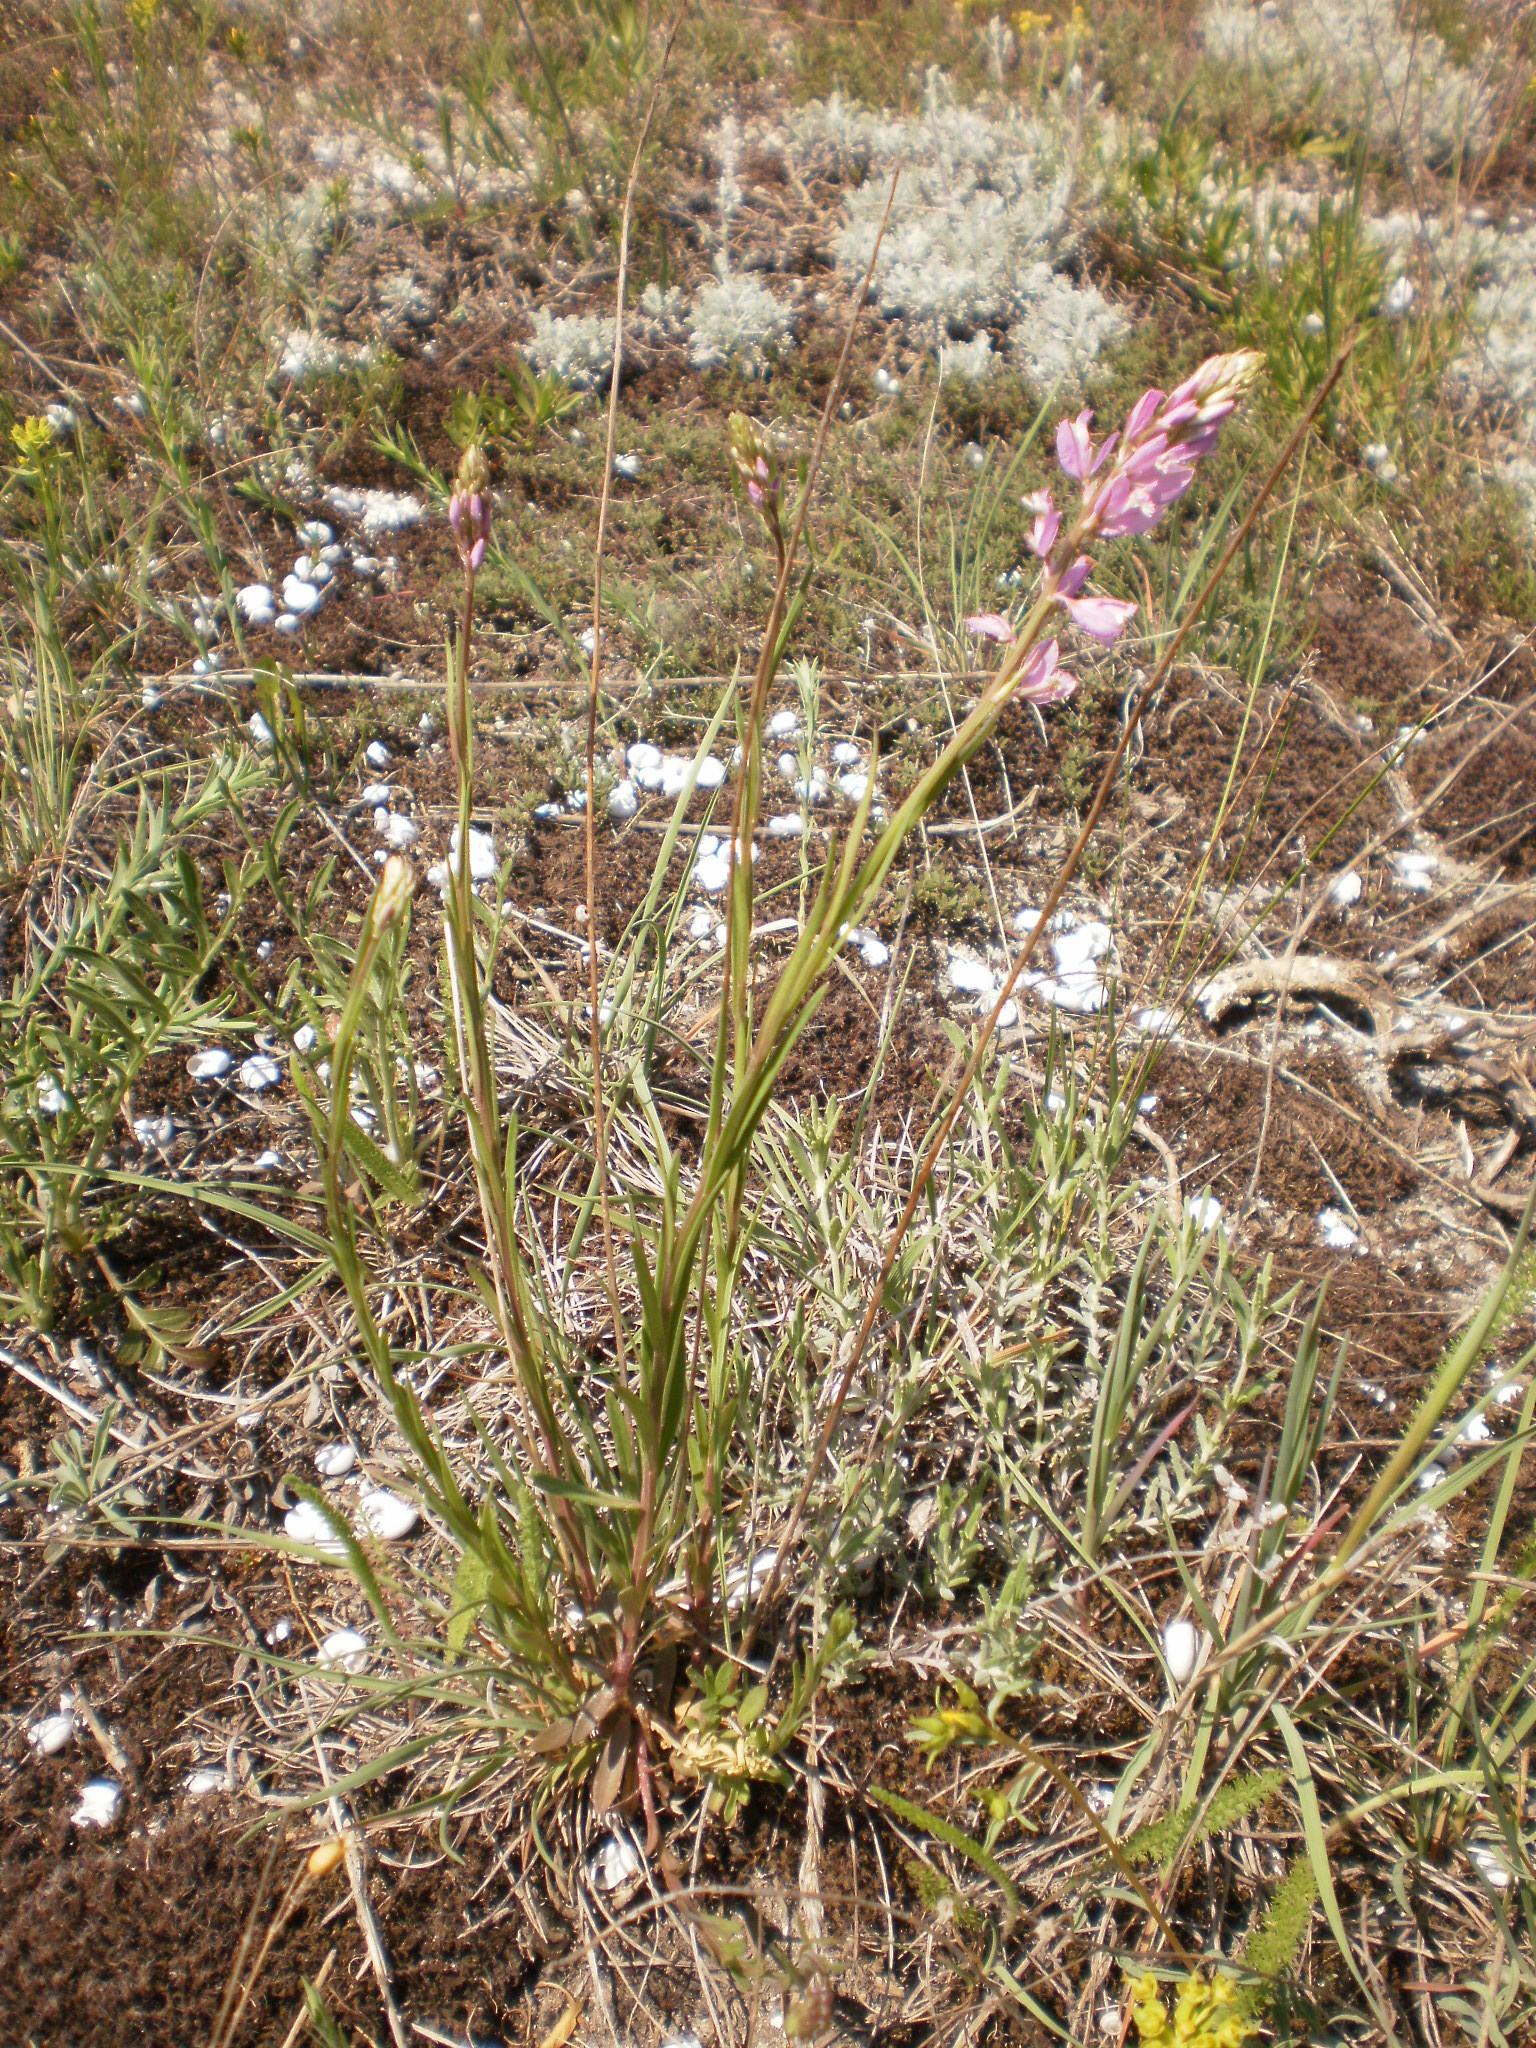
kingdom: Plantae
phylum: Tracheophyta
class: Magnoliopsida
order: Fabales
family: Polygalaceae
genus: Polygala
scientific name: Polygala nicaeensis
